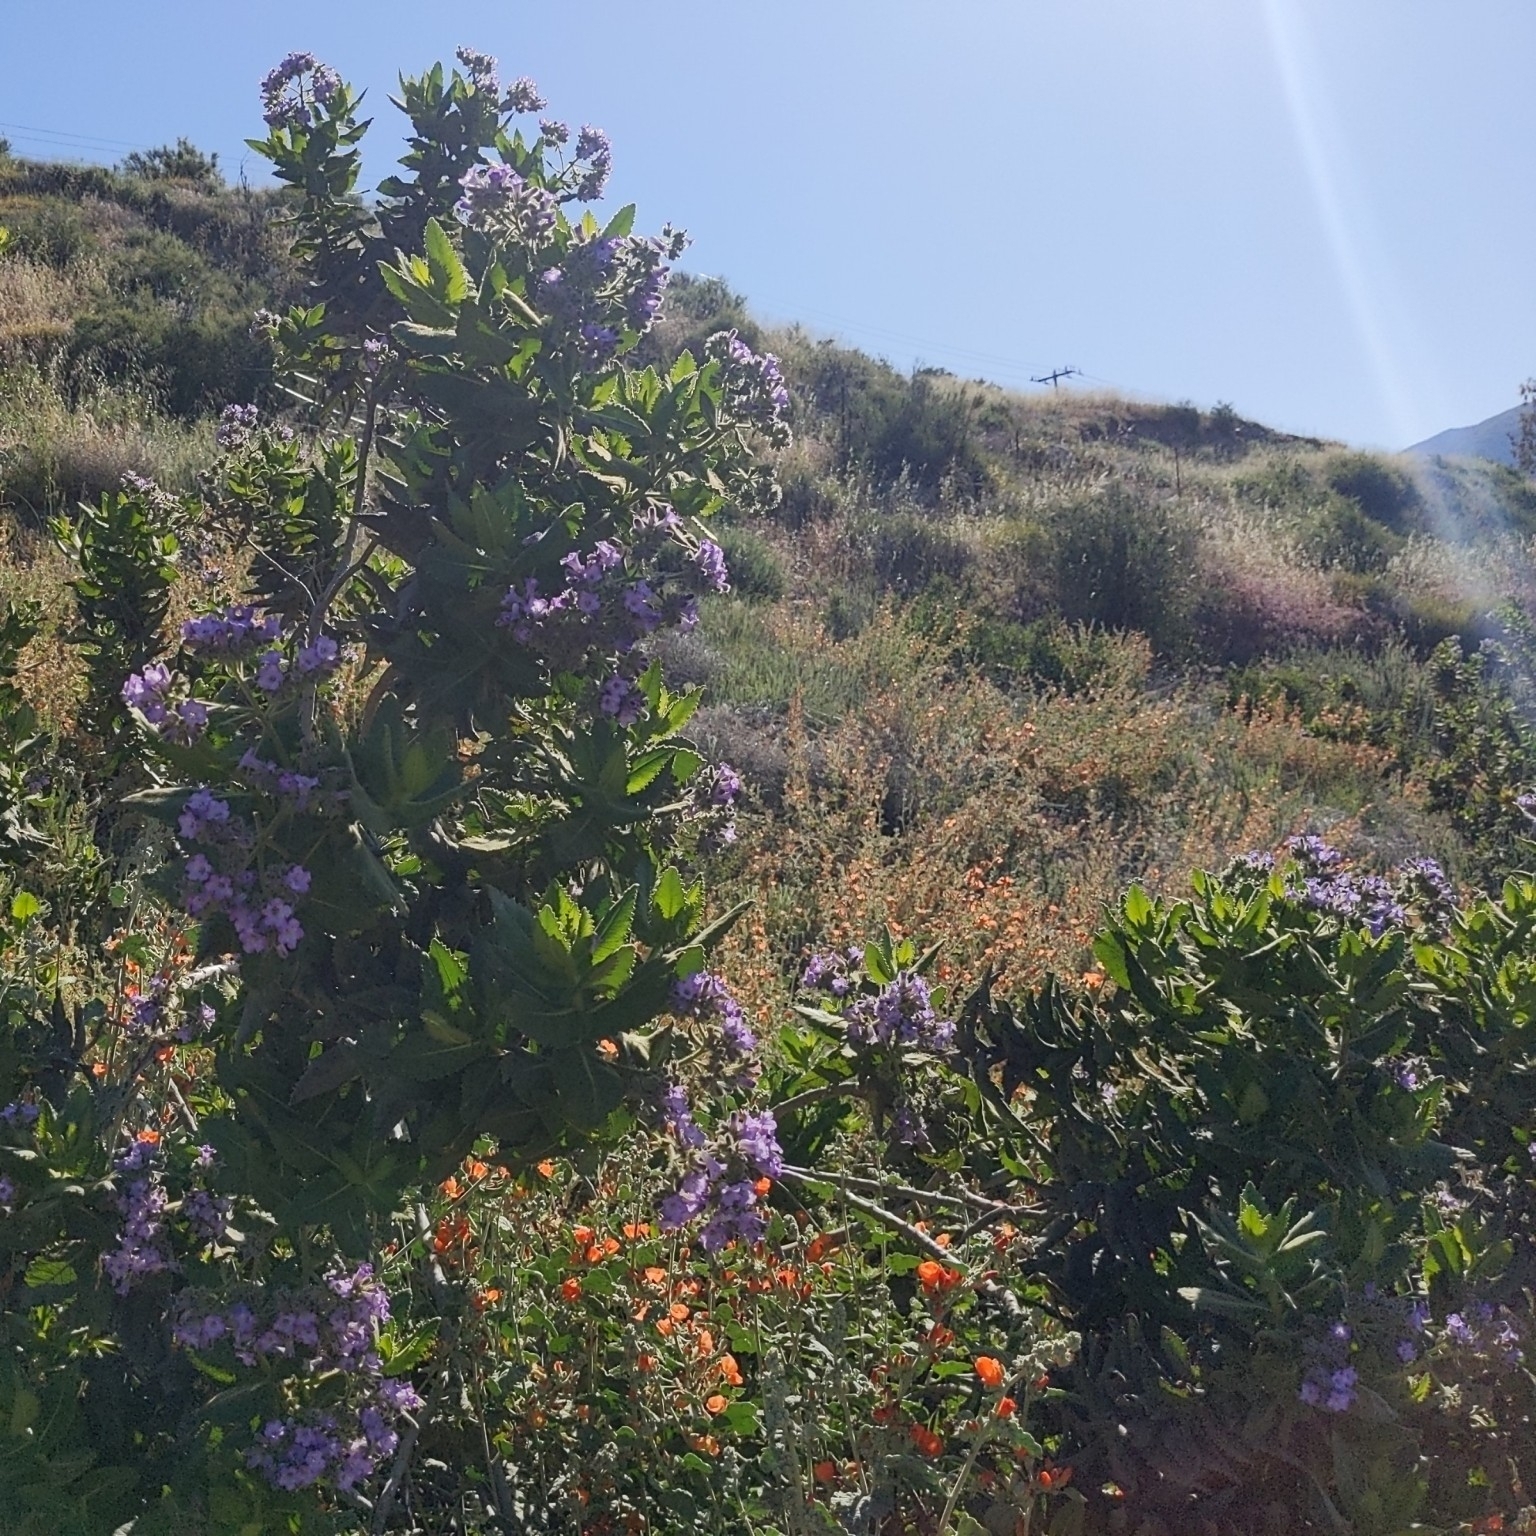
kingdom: Plantae
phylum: Tracheophyta
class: Magnoliopsida
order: Boraginales
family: Namaceae
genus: Eriodictyon
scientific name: Eriodictyon sessilifolium
